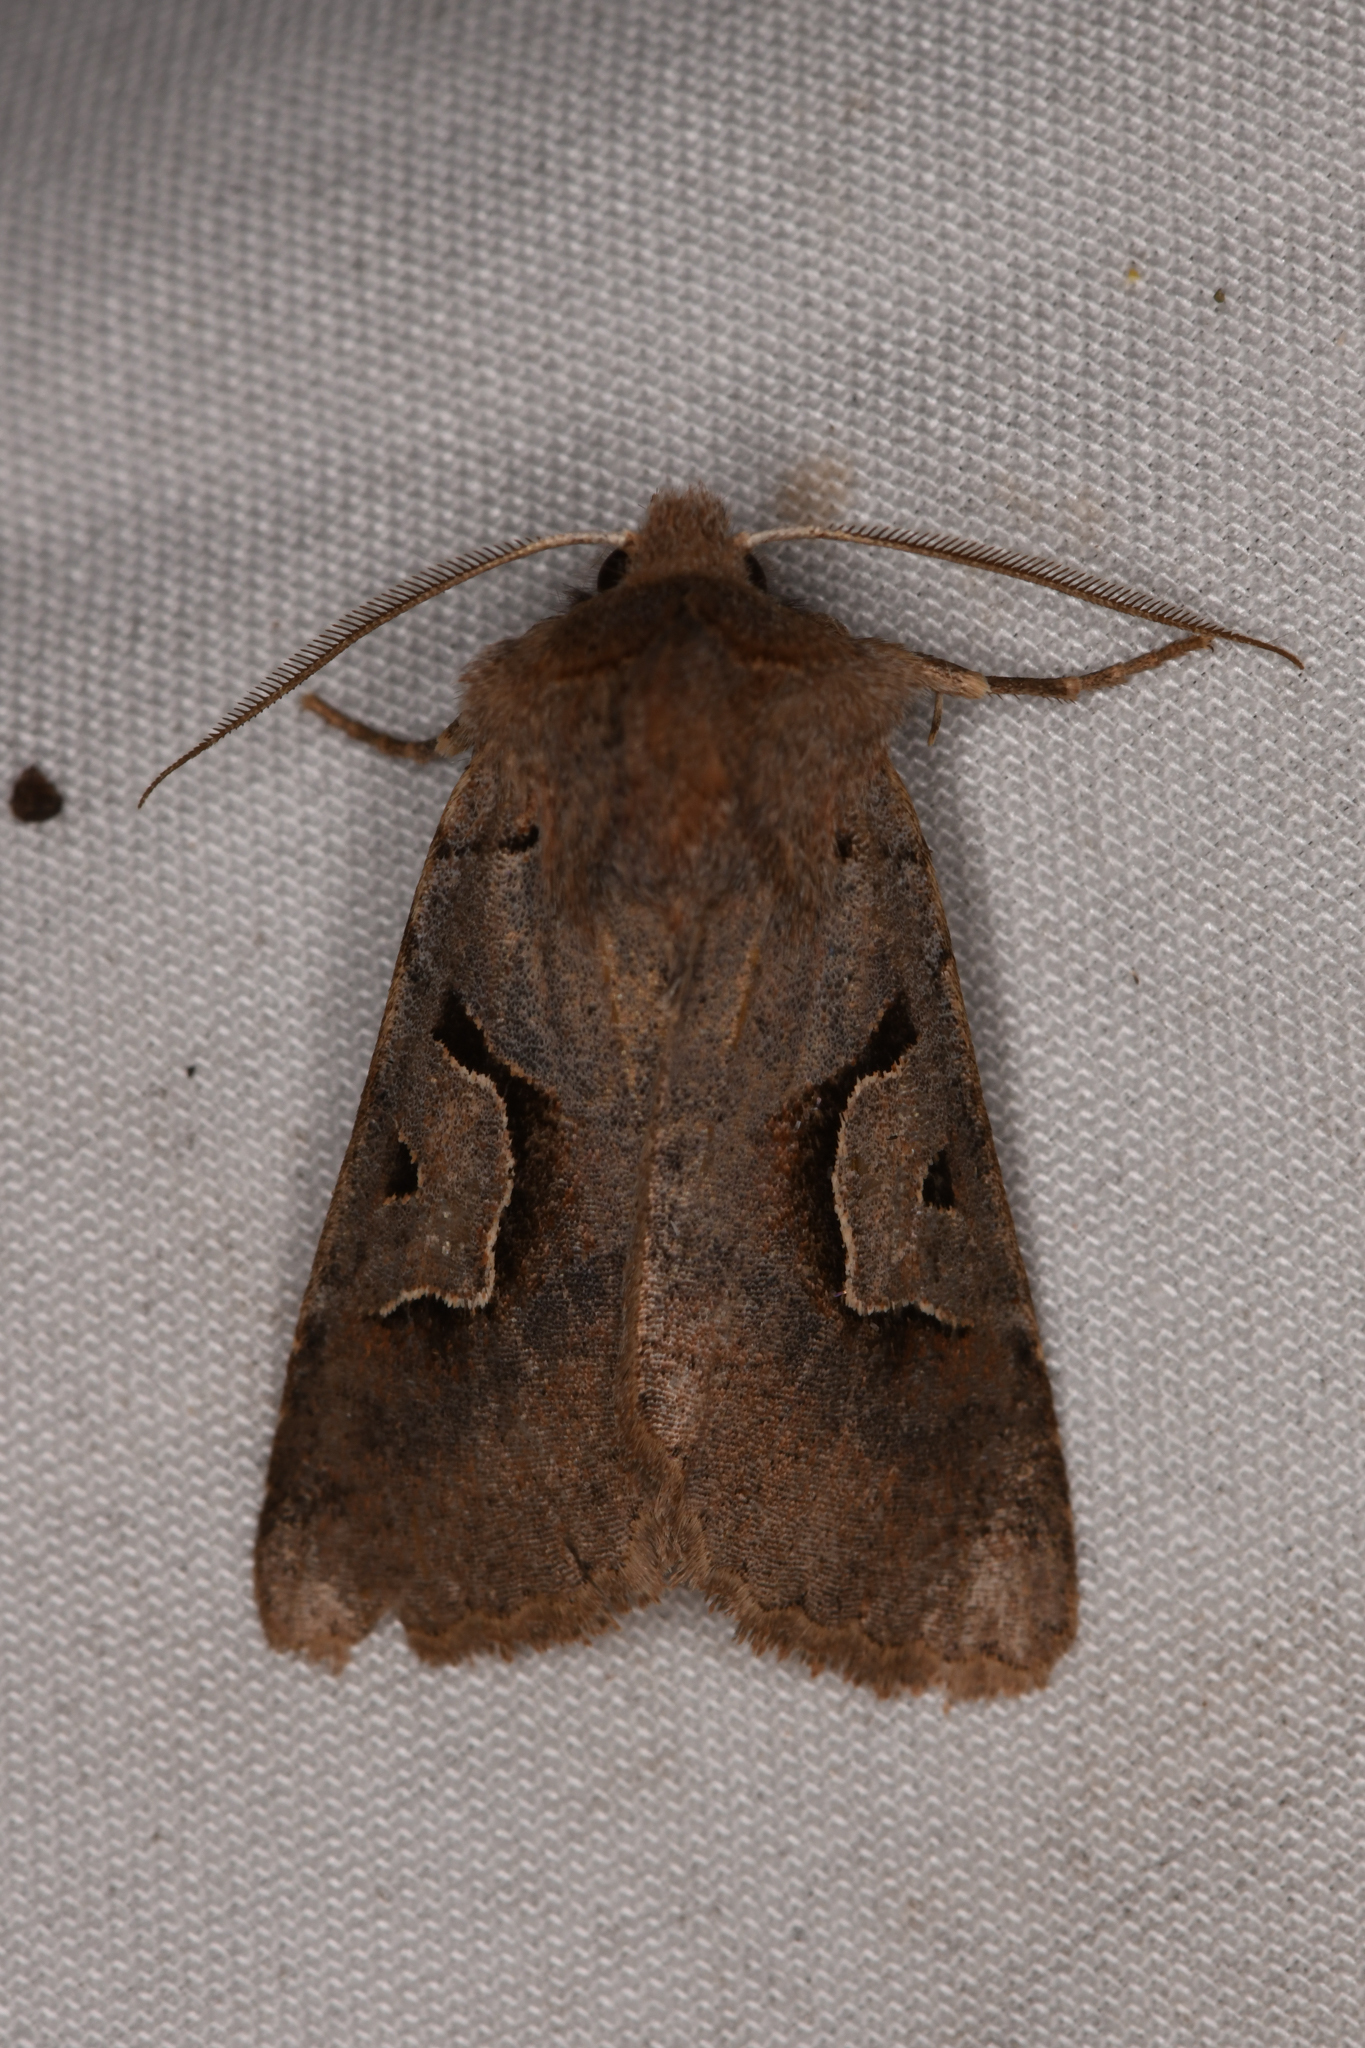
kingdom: Animalia
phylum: Arthropoda
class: Insecta
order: Lepidoptera
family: Noctuidae
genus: Acerra
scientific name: Acerra normalis
